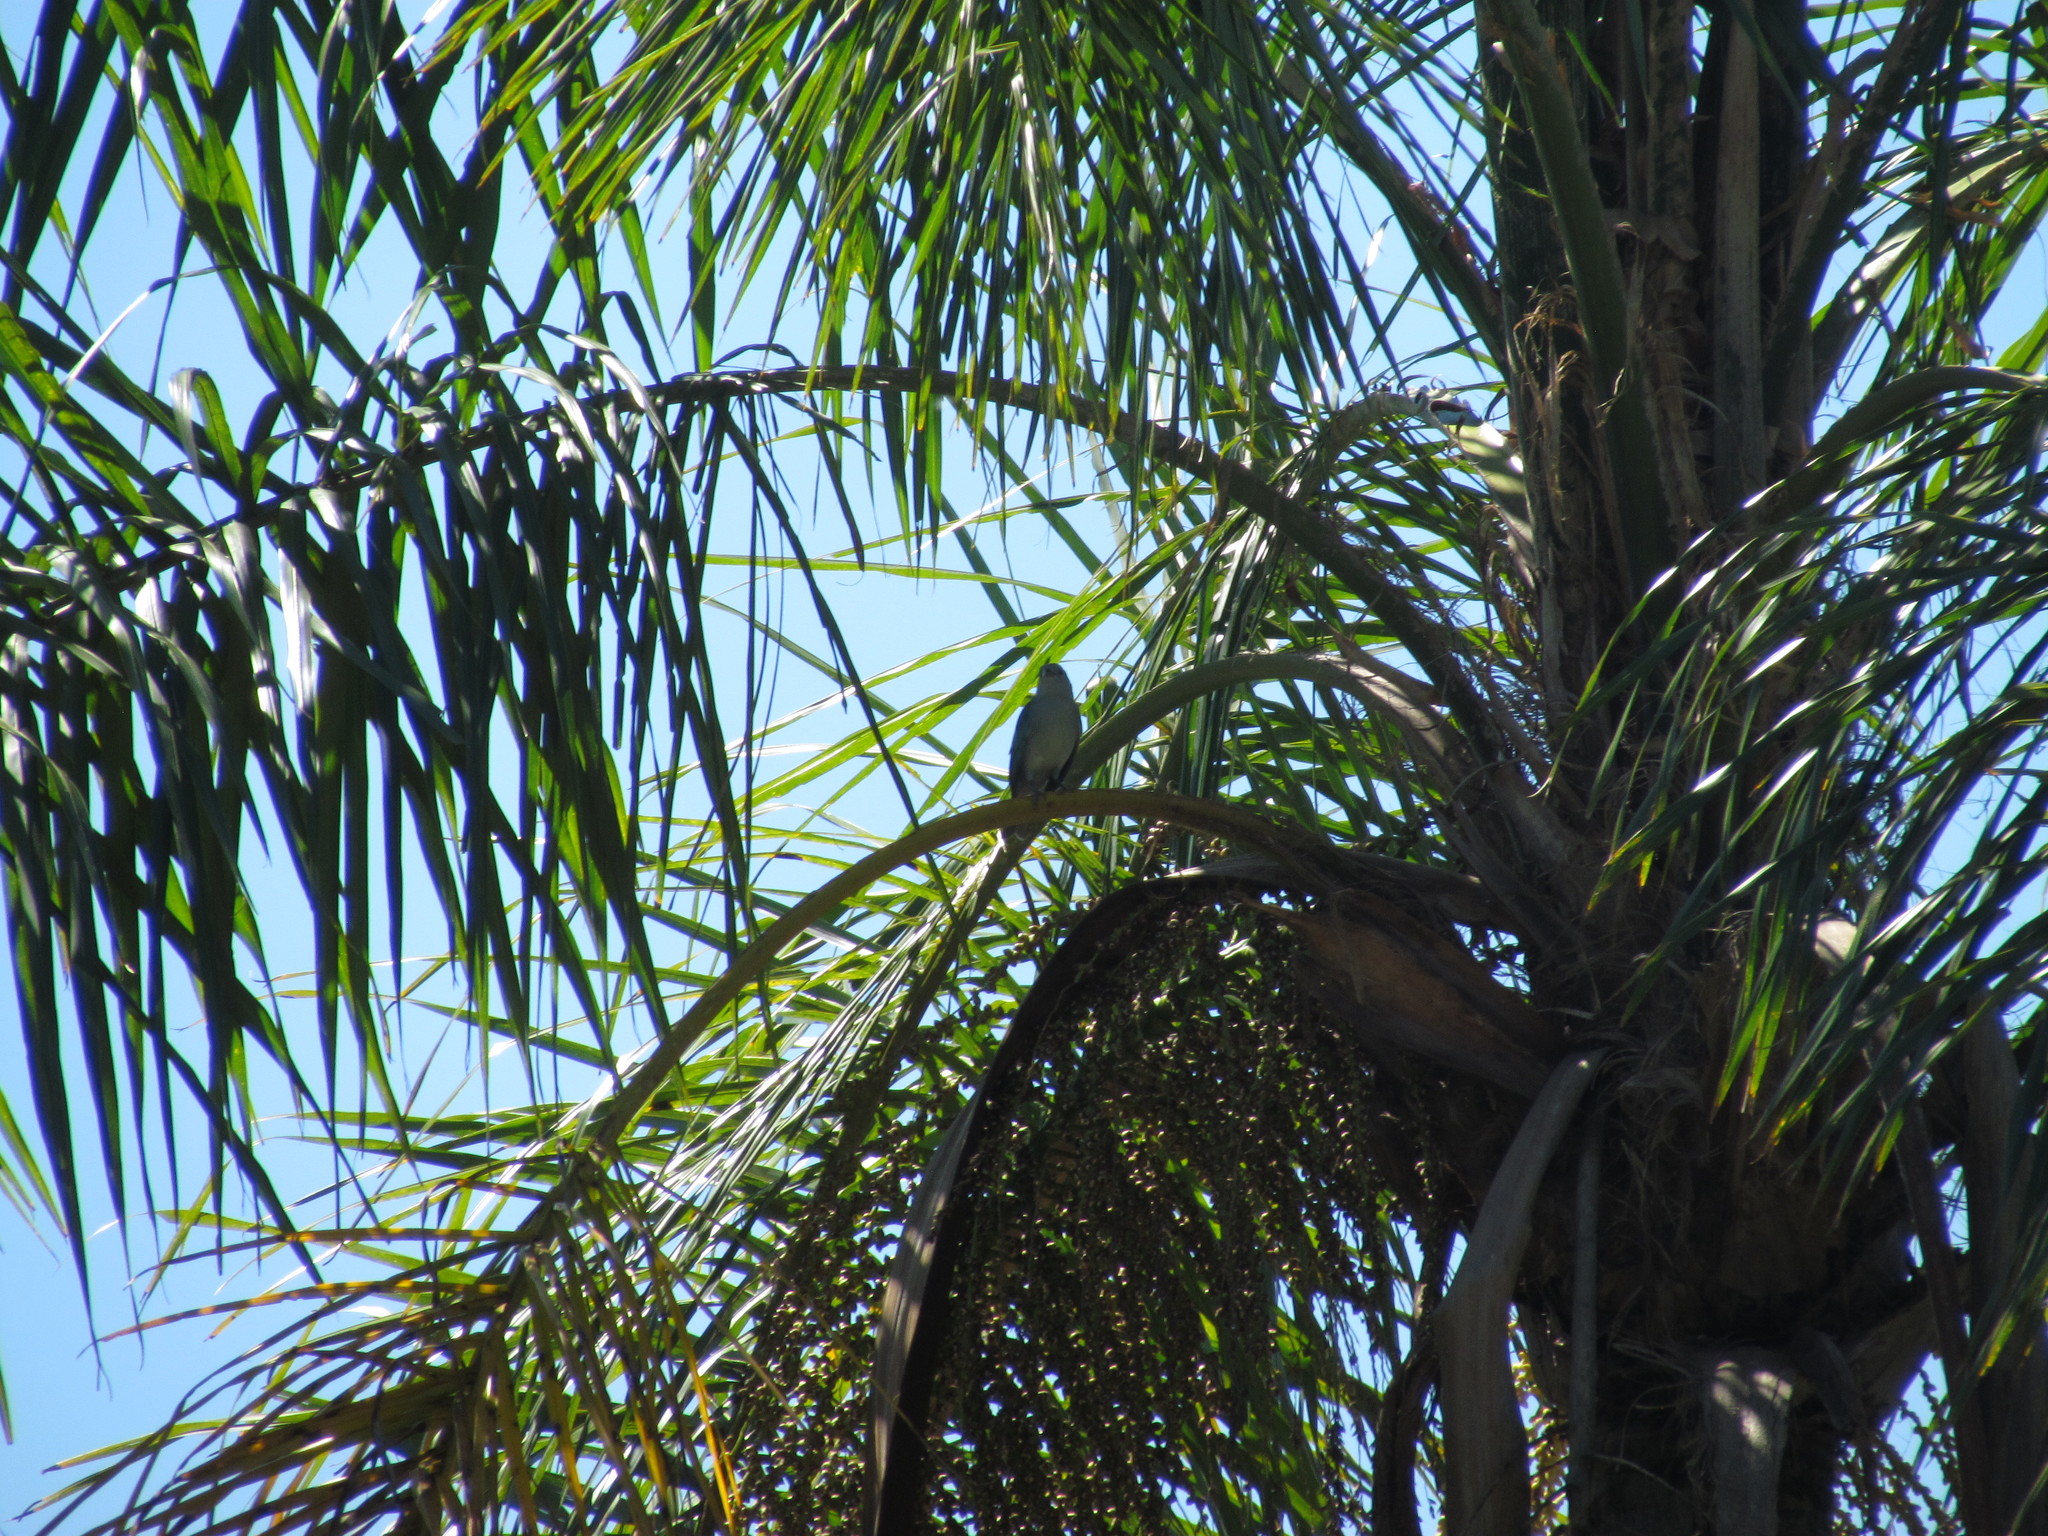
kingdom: Animalia
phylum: Chordata
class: Aves
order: Passeriformes
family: Thraupidae
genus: Thraupis
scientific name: Thraupis sayaca
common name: Sayaca tanager
